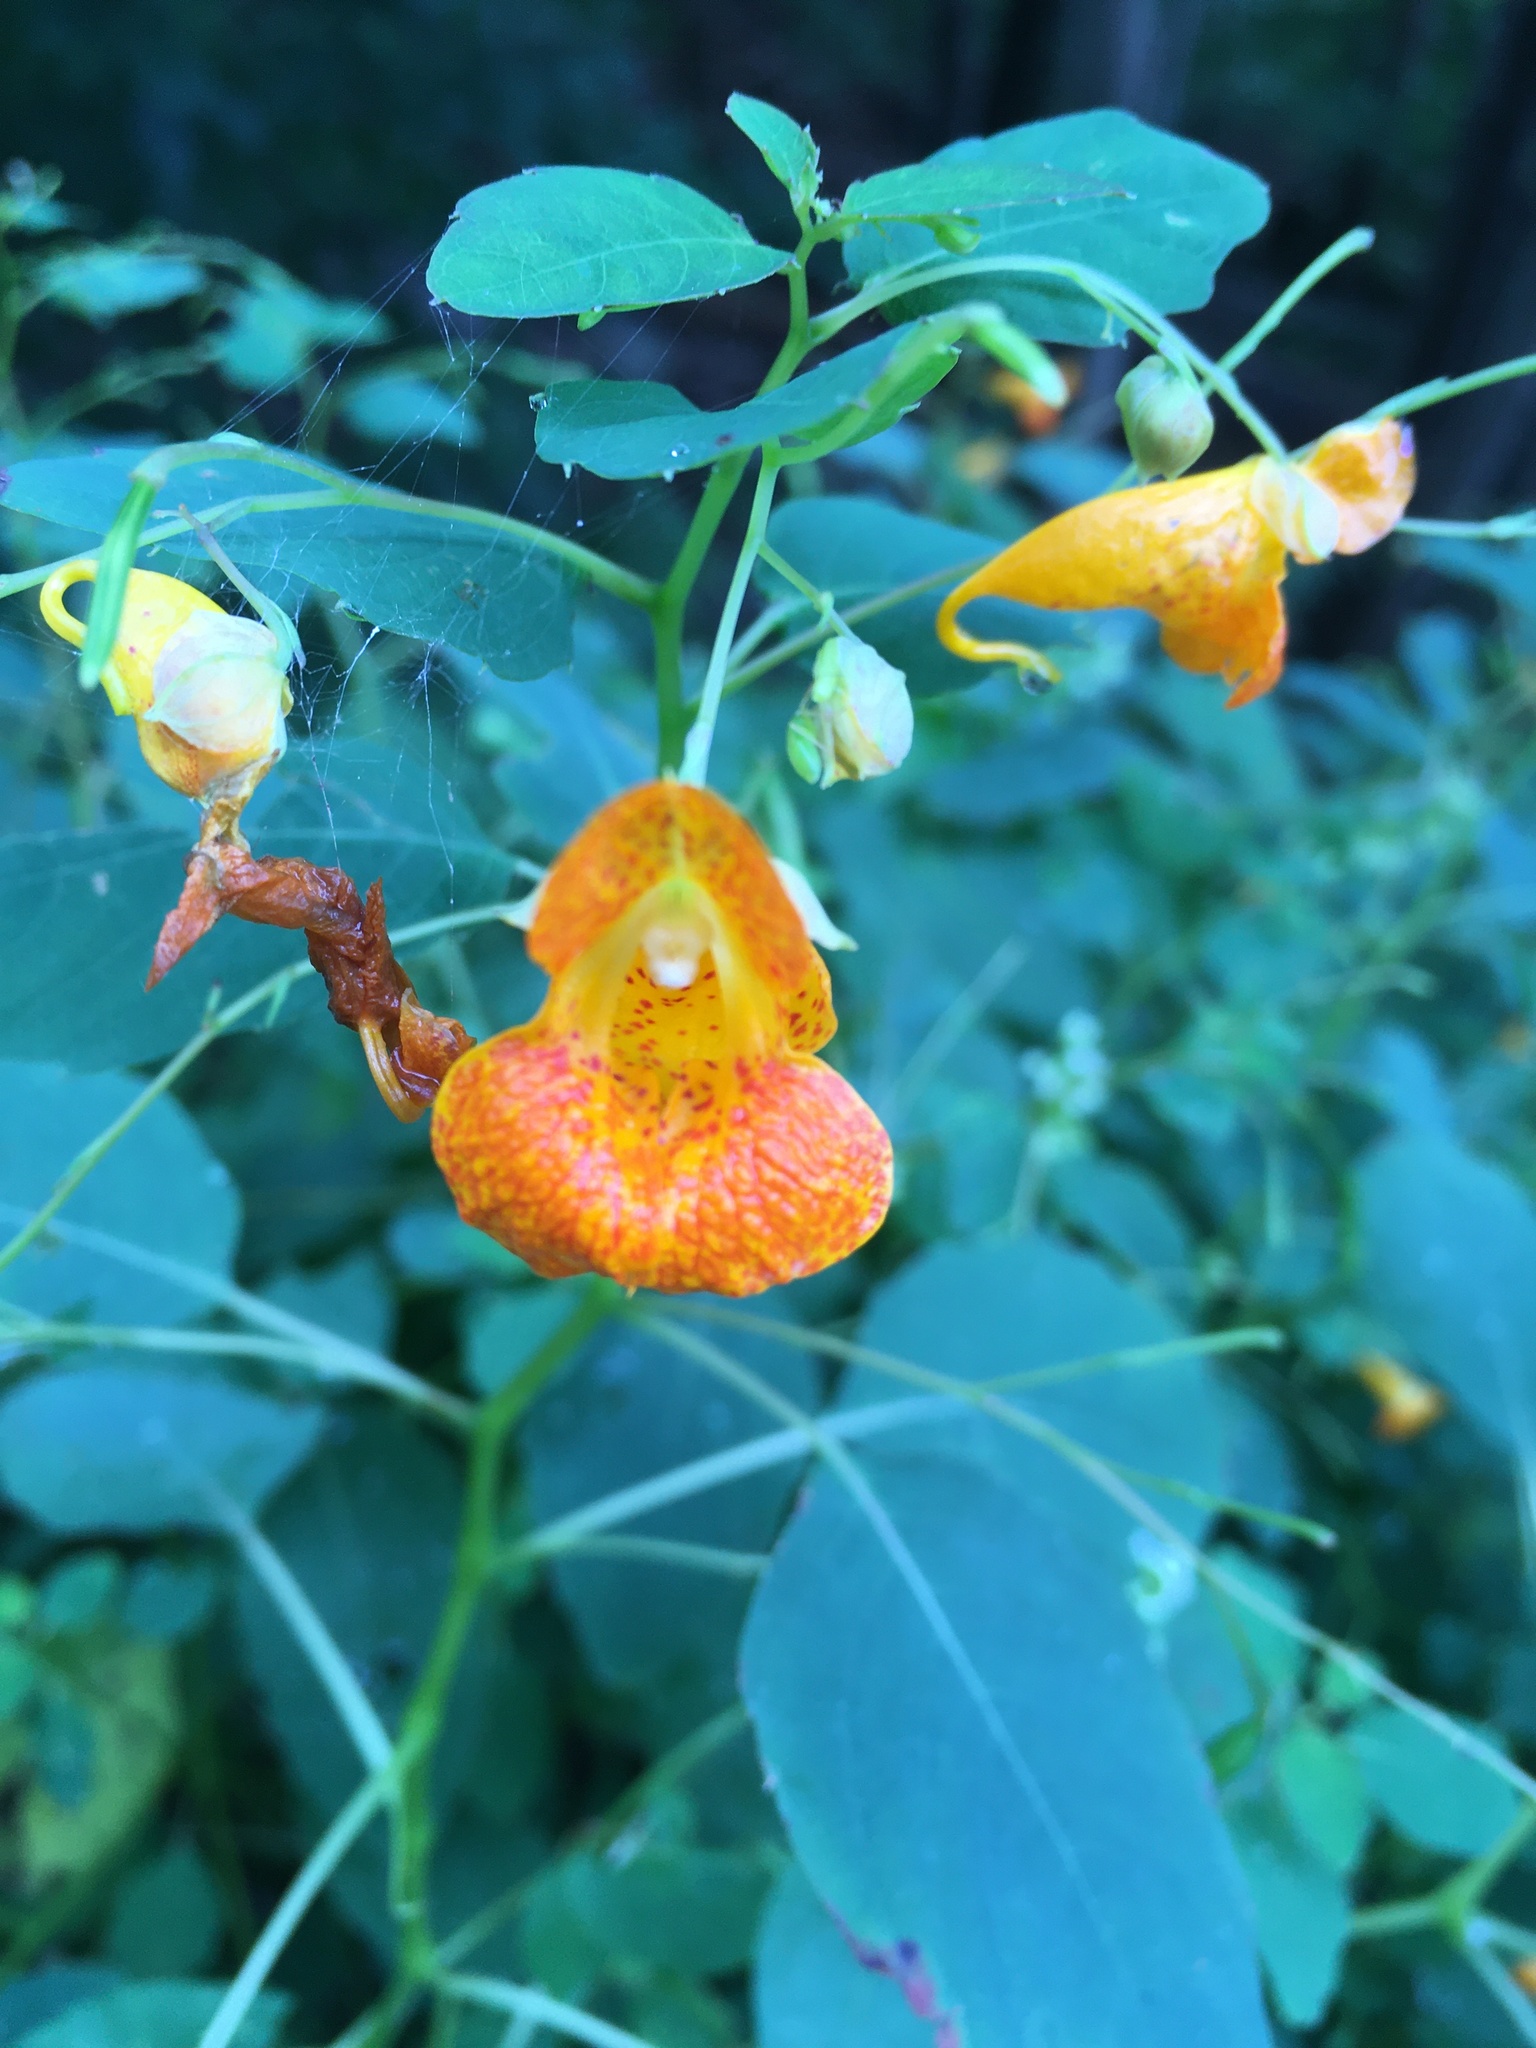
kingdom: Plantae
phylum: Tracheophyta
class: Magnoliopsida
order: Ericales
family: Balsaminaceae
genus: Impatiens
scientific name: Impatiens capensis
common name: Orange balsam
